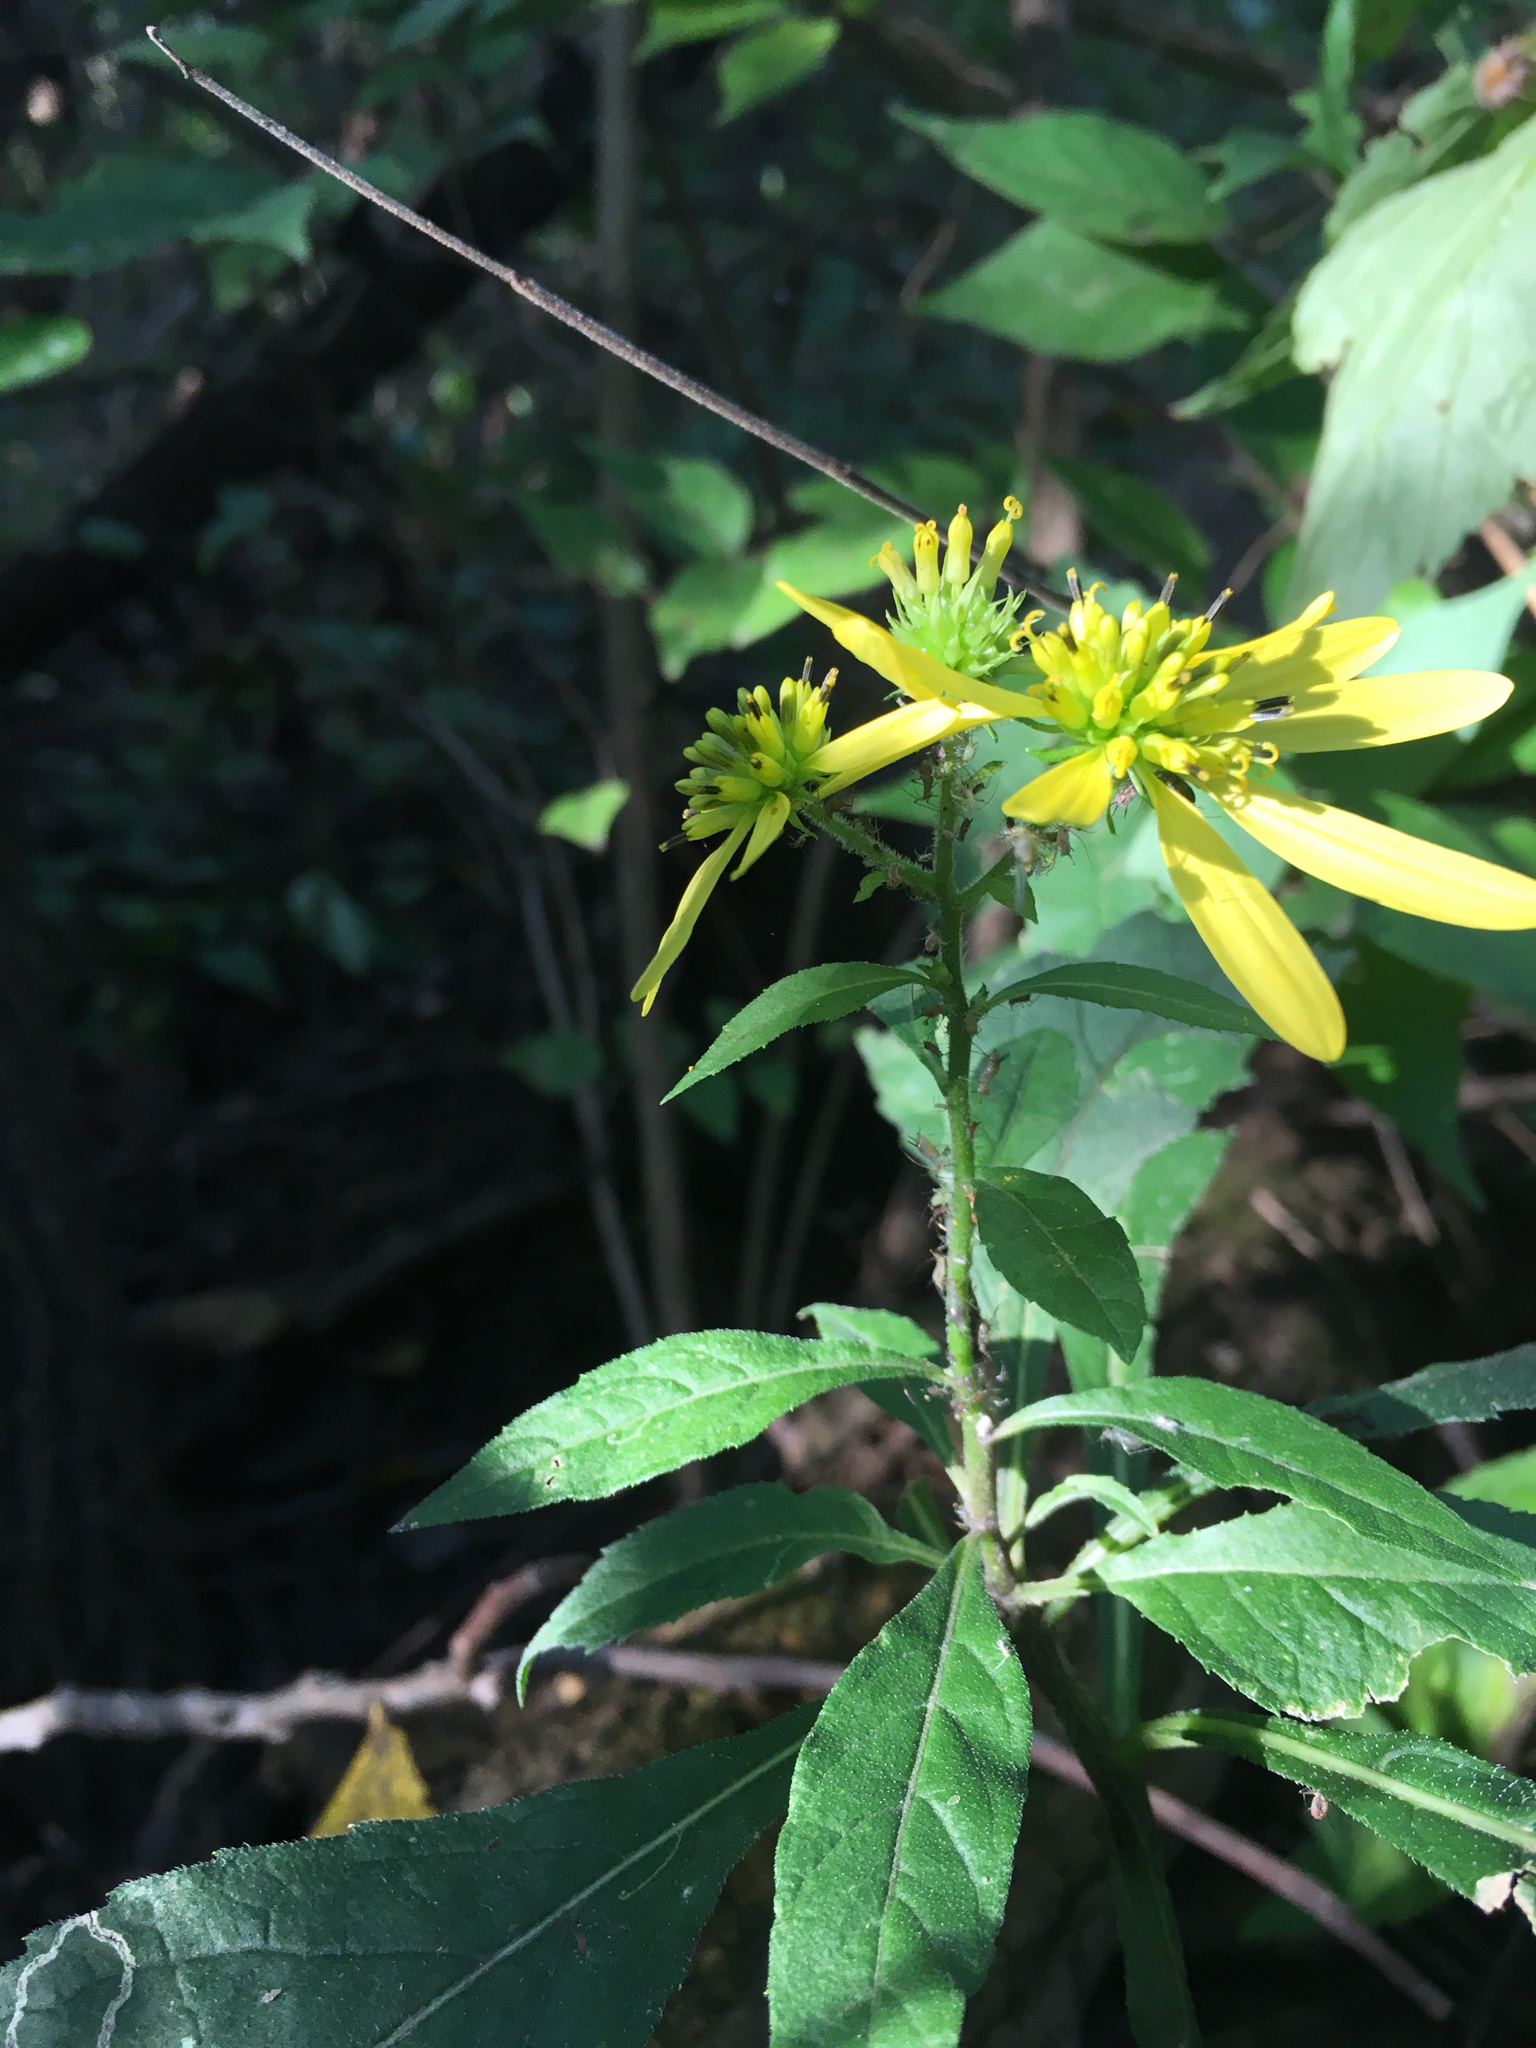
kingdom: Plantae
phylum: Tracheophyta
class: Magnoliopsida
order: Asterales
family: Asteraceae
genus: Verbesina
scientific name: Verbesina alternifolia
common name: Wingstem
